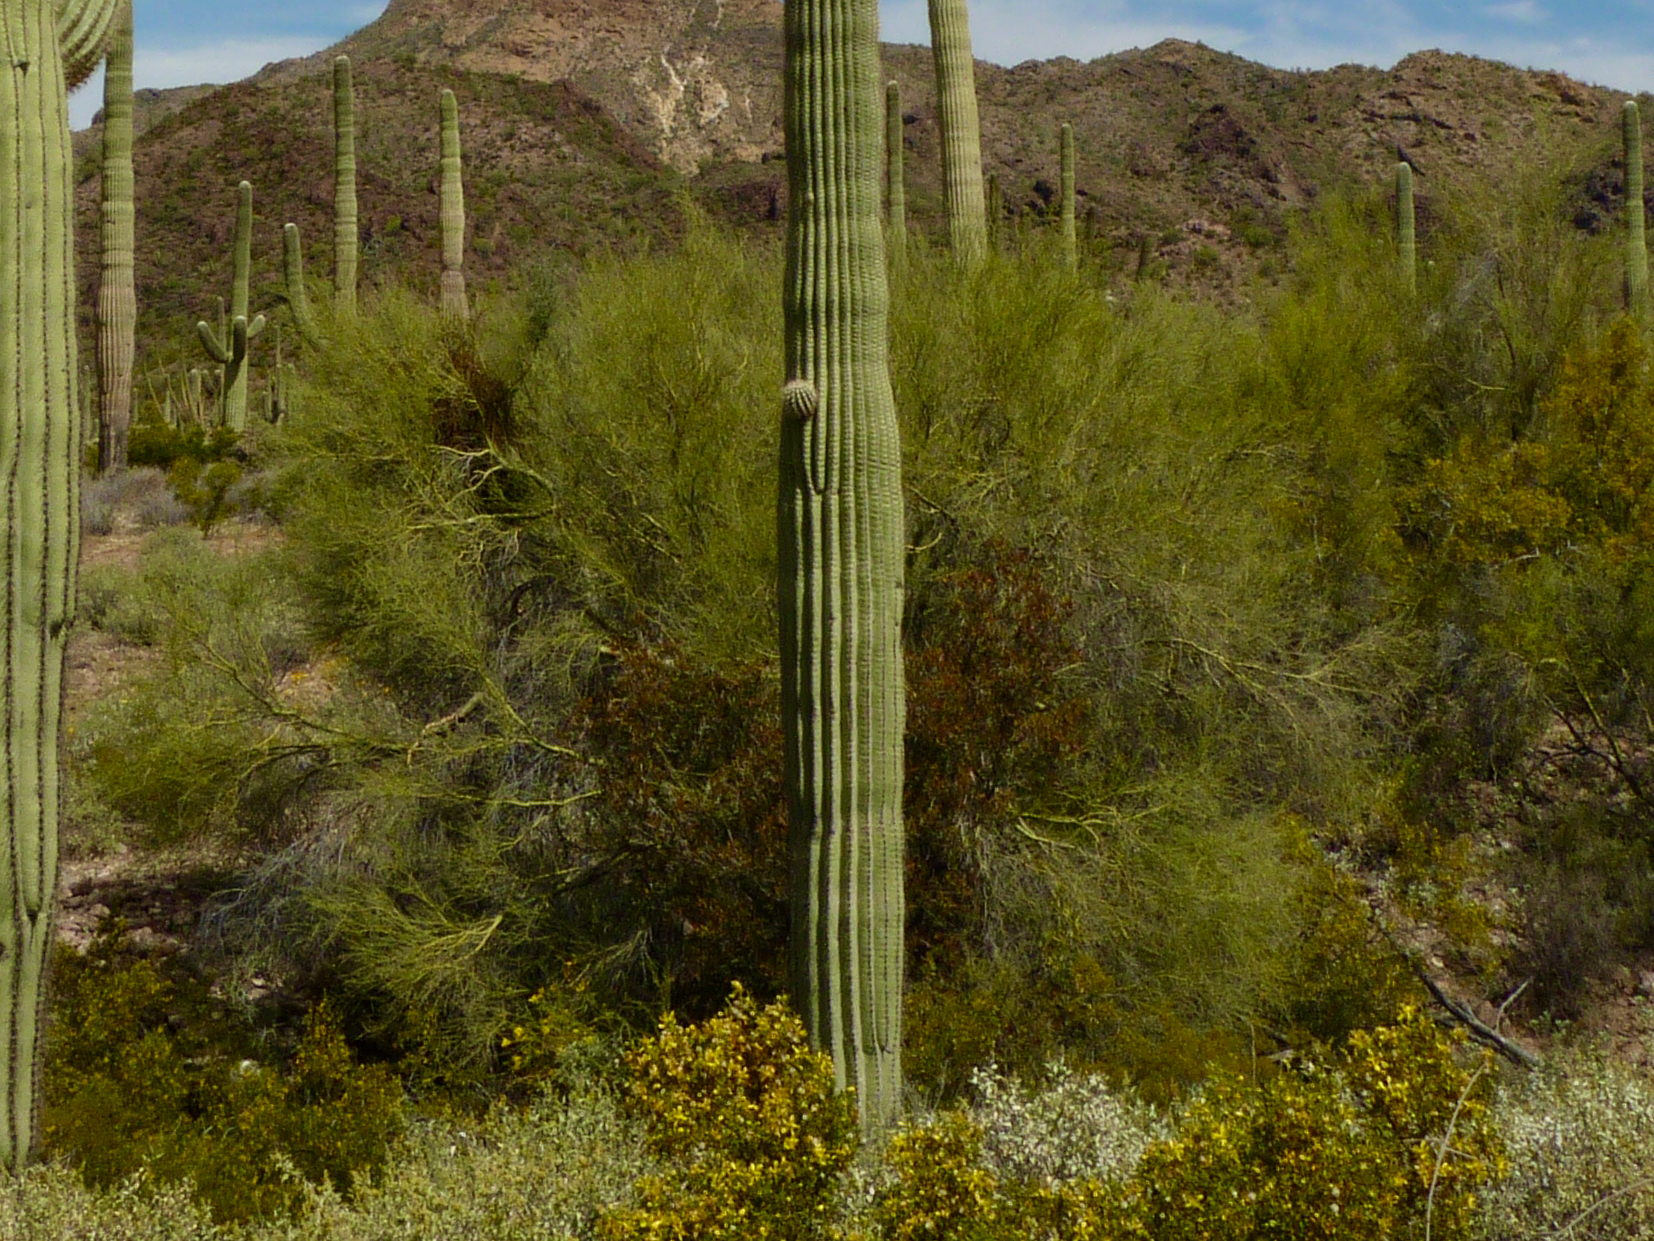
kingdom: Plantae
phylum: Tracheophyta
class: Magnoliopsida
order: Fabales
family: Fabaceae
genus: Parkinsonia
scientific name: Parkinsonia microphylla
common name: Yellow paloverde
